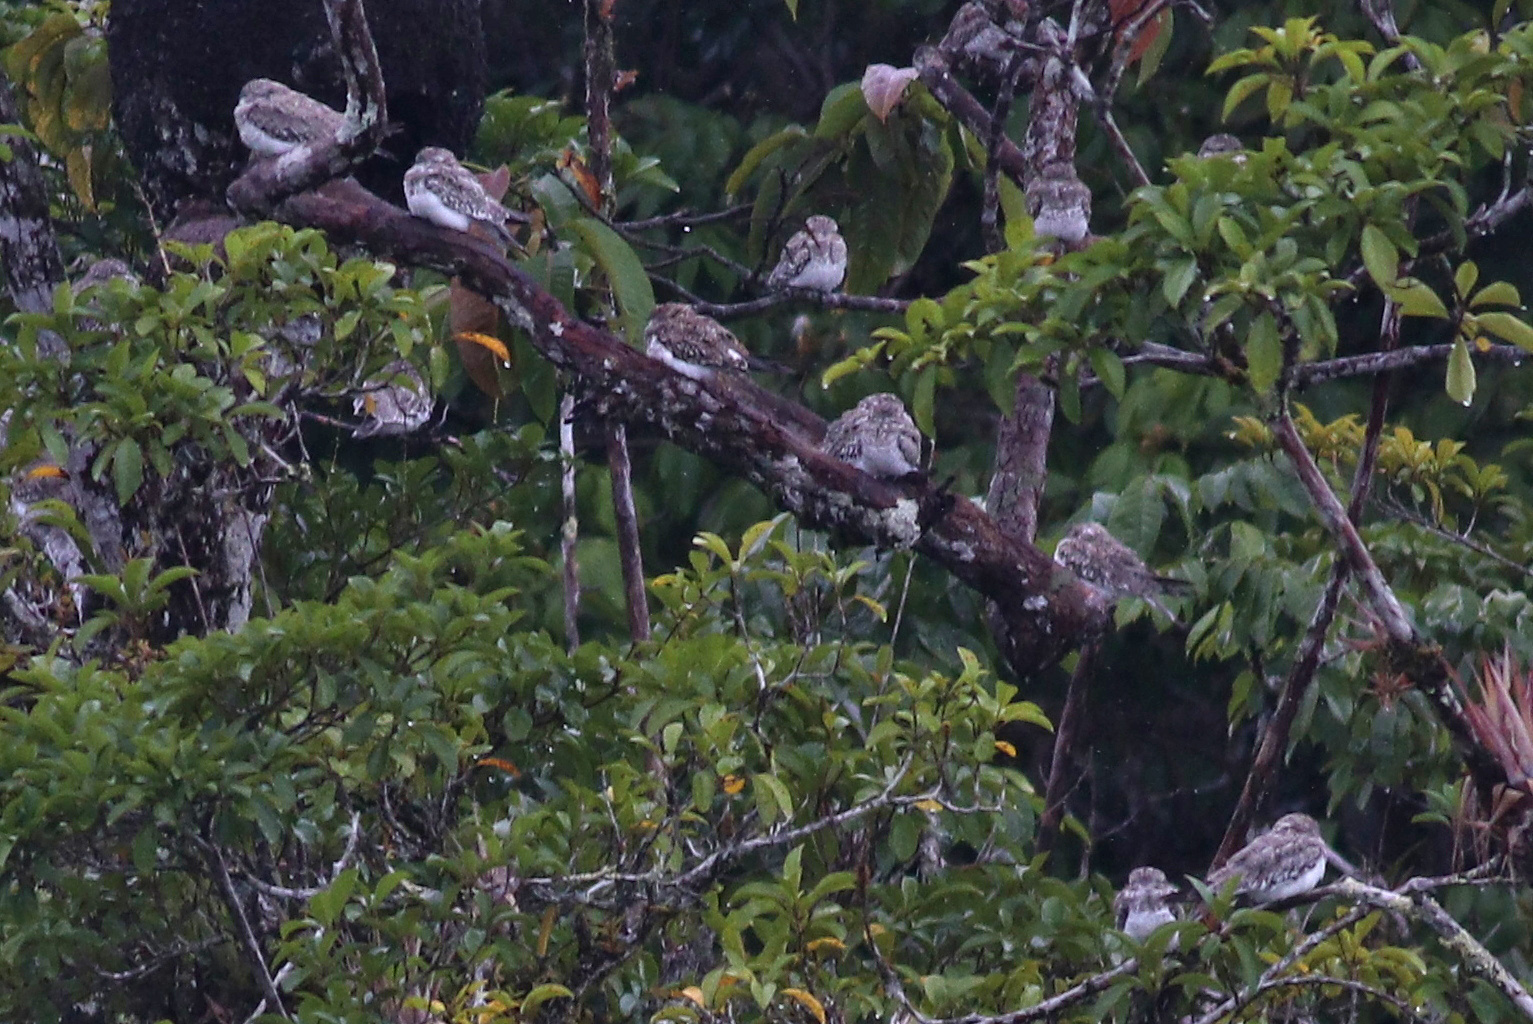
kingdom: Animalia
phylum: Chordata
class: Aves
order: Caprimulgiformes
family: Caprimulgidae
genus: Chordeiles
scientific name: Chordeiles rupestris
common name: Sand-colored nighthawk
